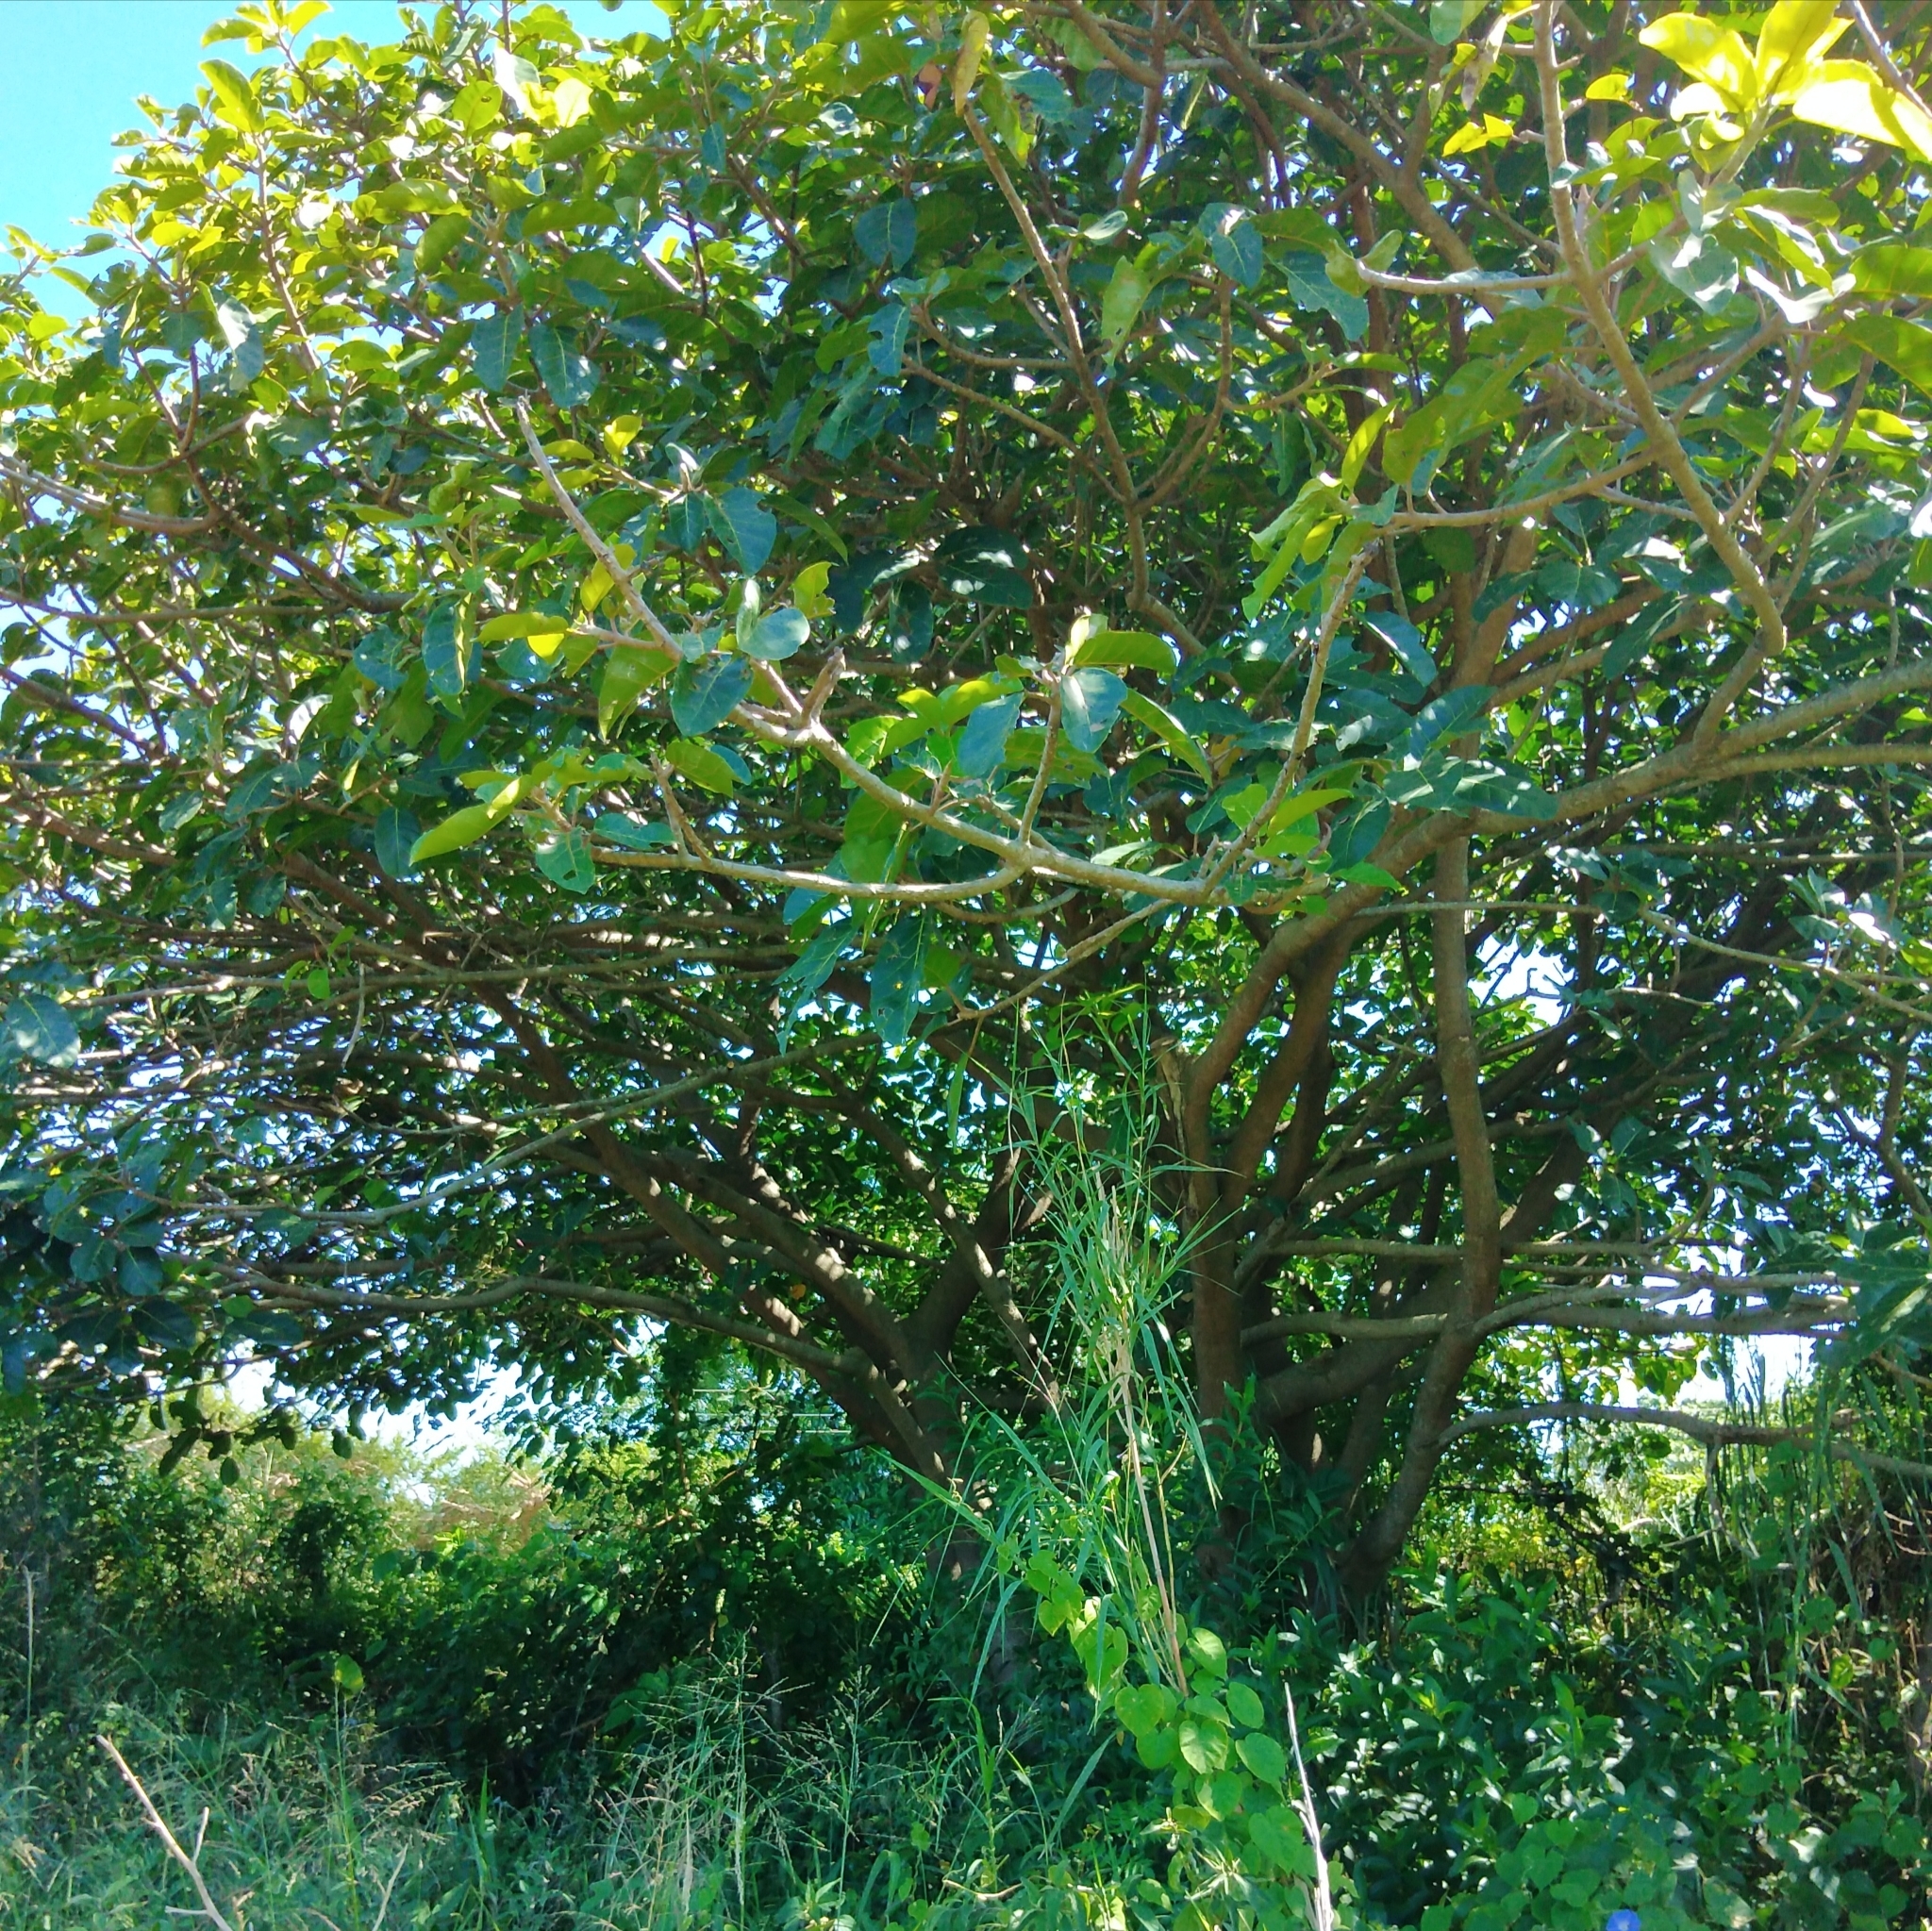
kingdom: Plantae
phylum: Tracheophyta
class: Magnoliopsida
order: Rosales
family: Moraceae
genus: Ficus
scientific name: Ficus lutea
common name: Giant-leaved fig
